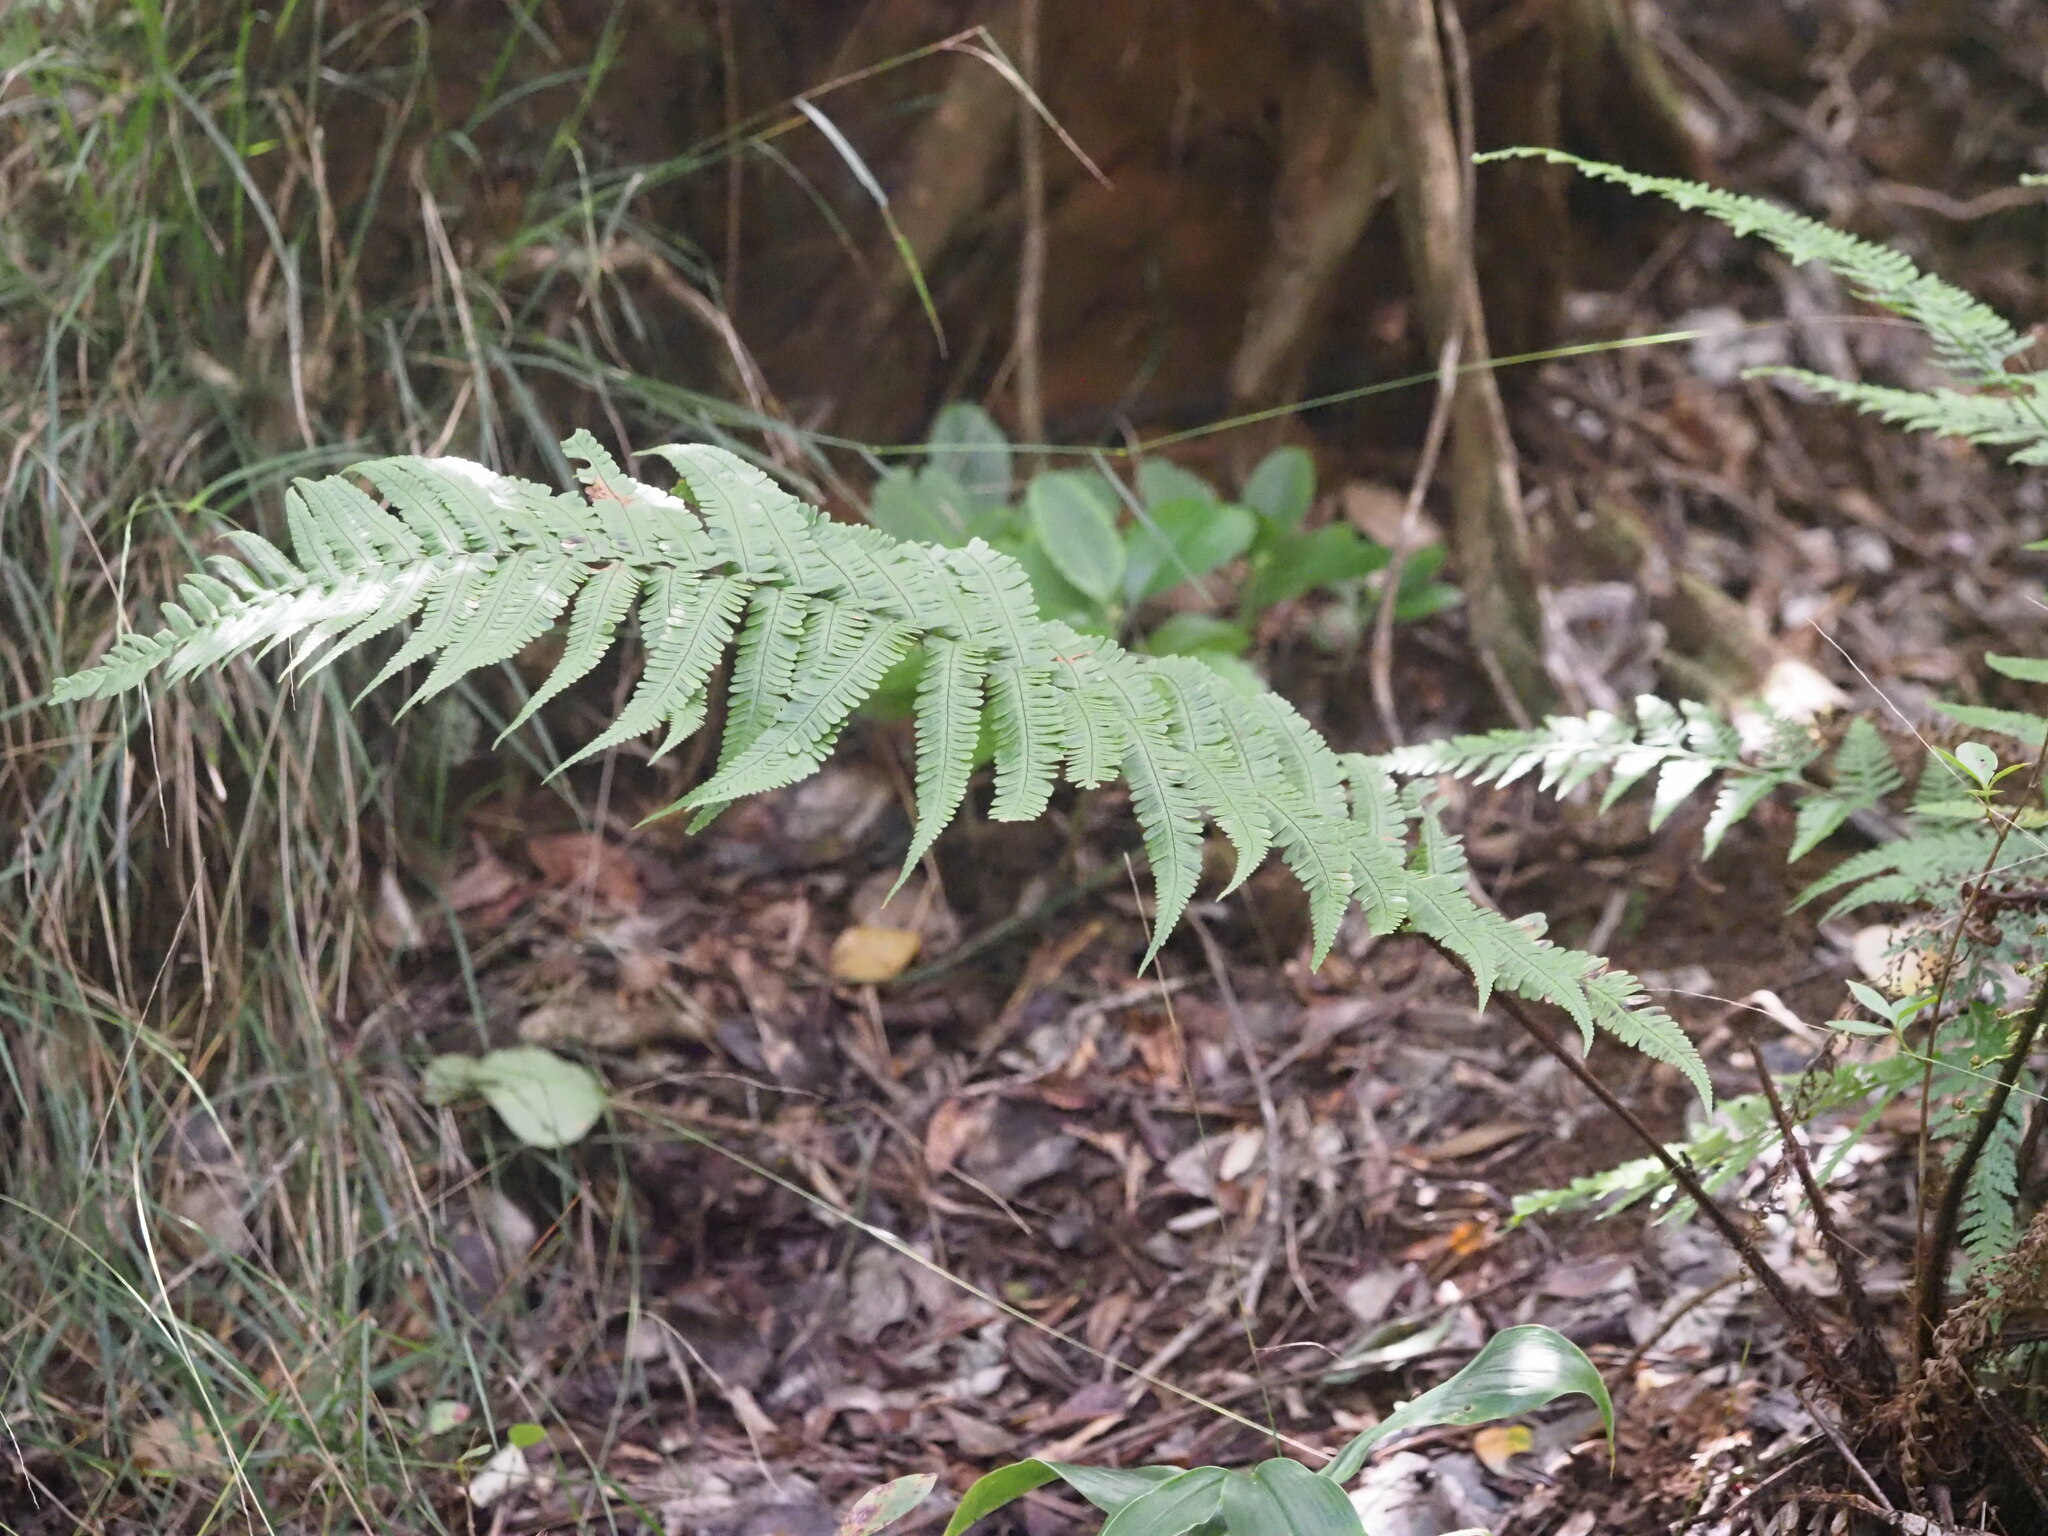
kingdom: Plantae
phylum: Tracheophyta
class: Polypodiopsida
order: Polypodiales
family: Dryopteridaceae
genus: Dryopteris
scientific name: Dryopteris fuscoatra
